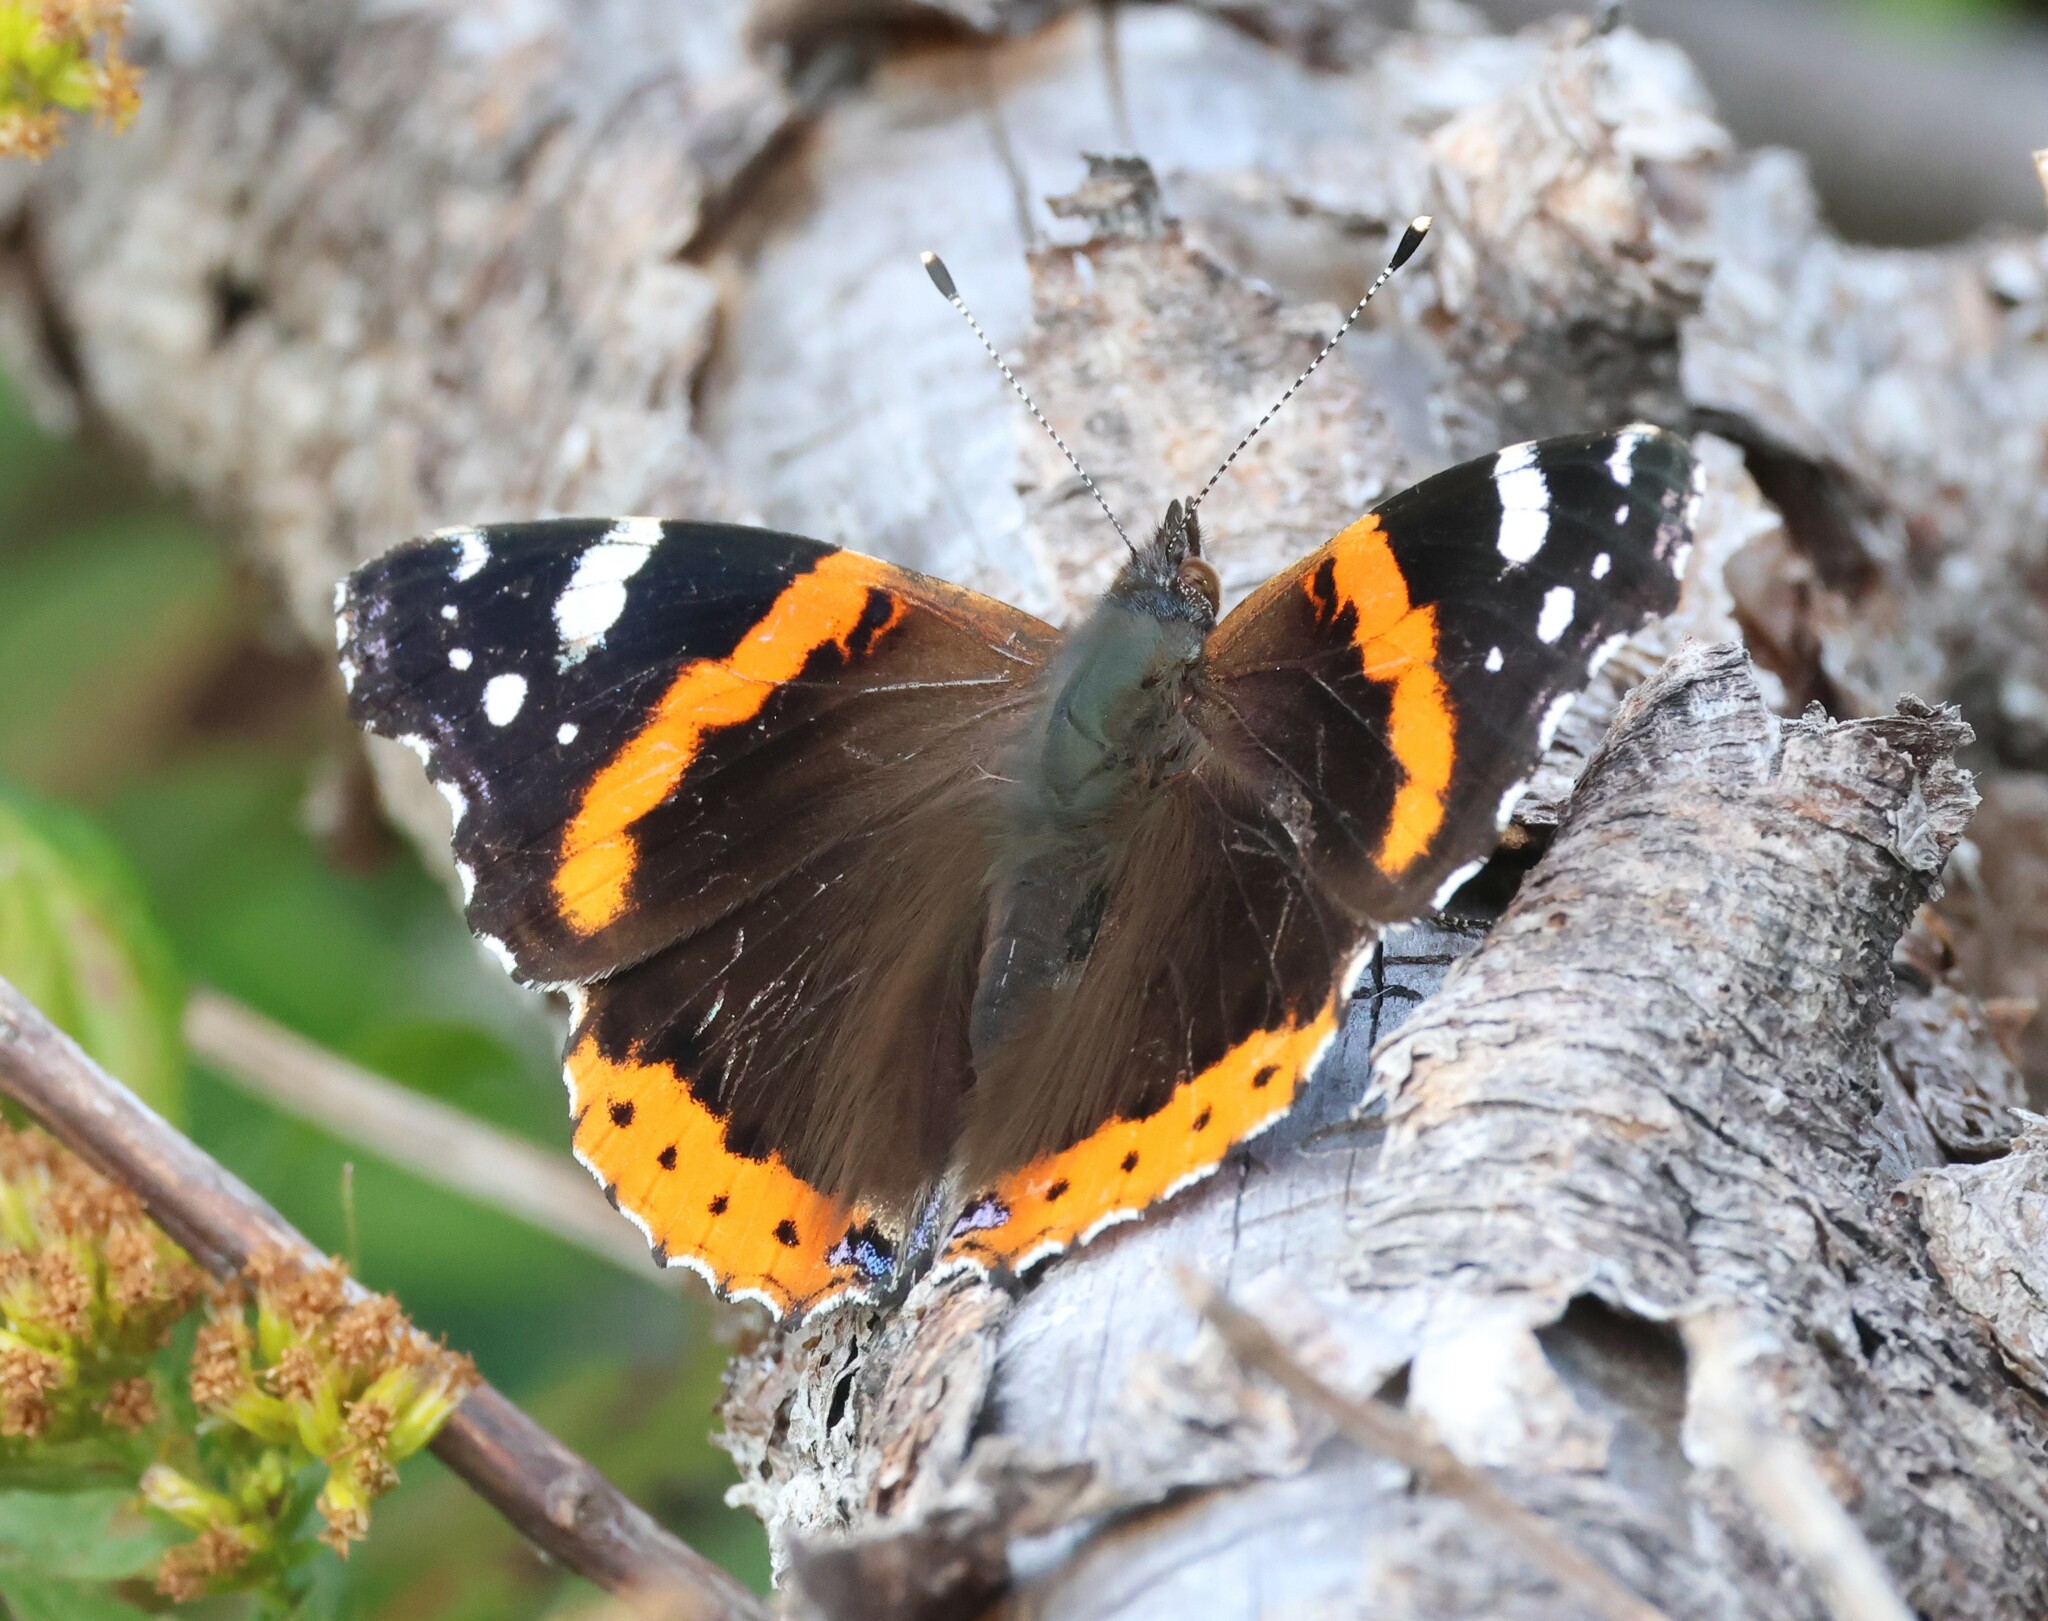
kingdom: Animalia
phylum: Arthropoda
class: Insecta
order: Lepidoptera
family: Nymphalidae
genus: Vanessa
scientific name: Vanessa atalanta
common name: Red admiral
